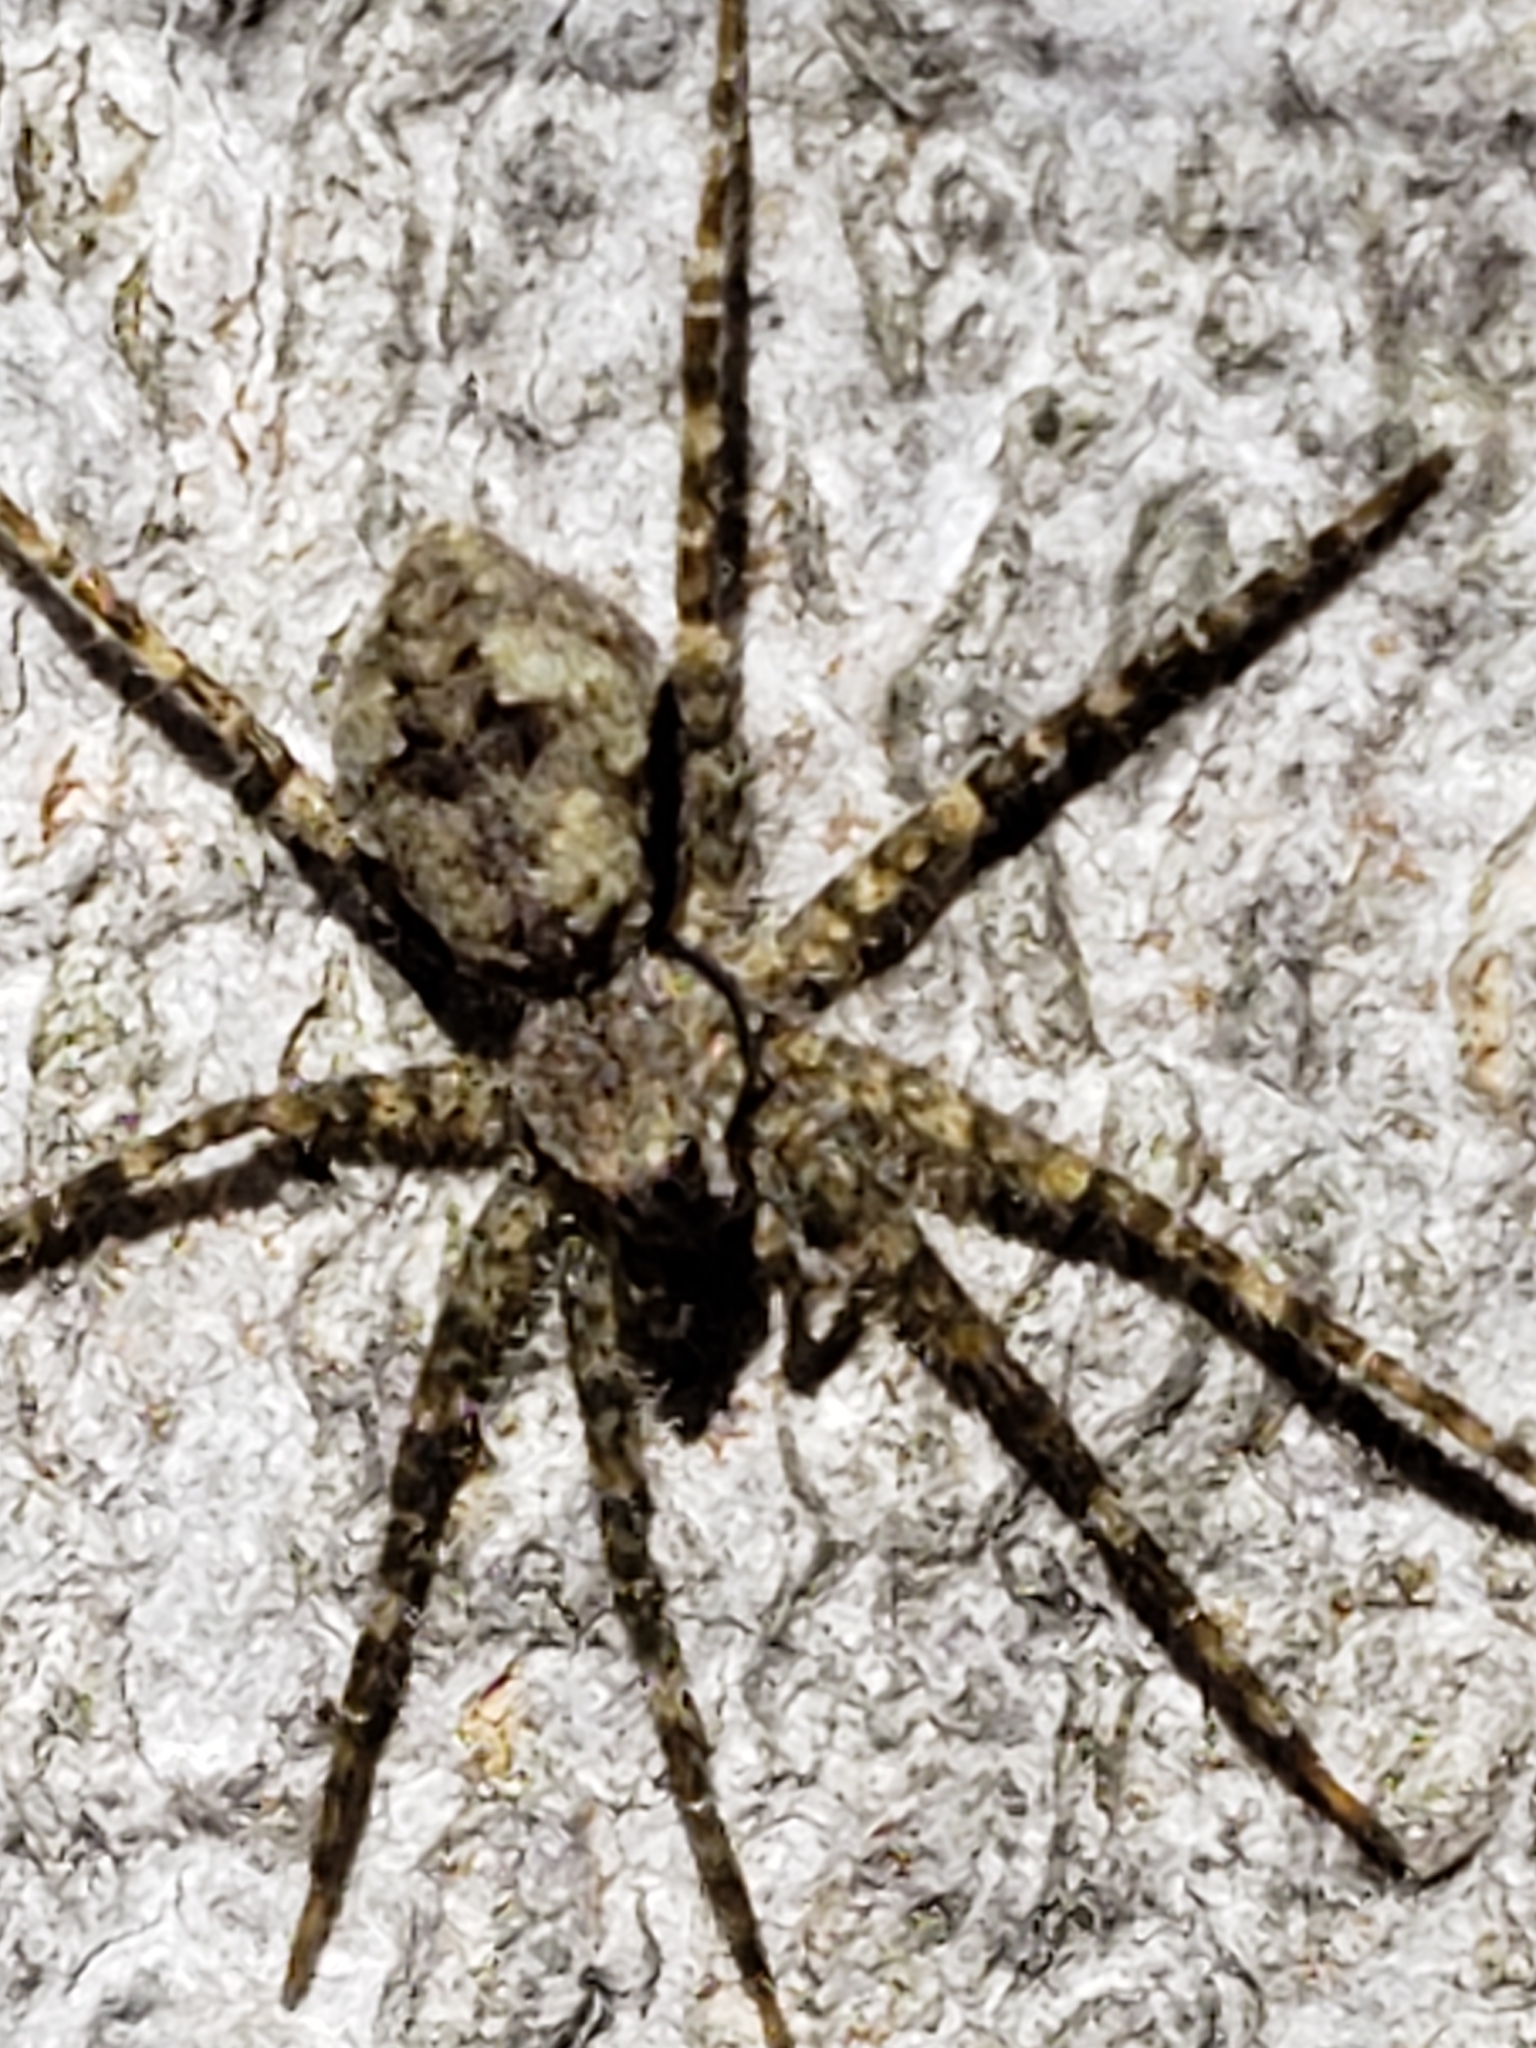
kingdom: Animalia
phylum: Arthropoda
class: Arachnida
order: Araneae
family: Pisauridae
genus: Dolomedes
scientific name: Dolomedes albineus
